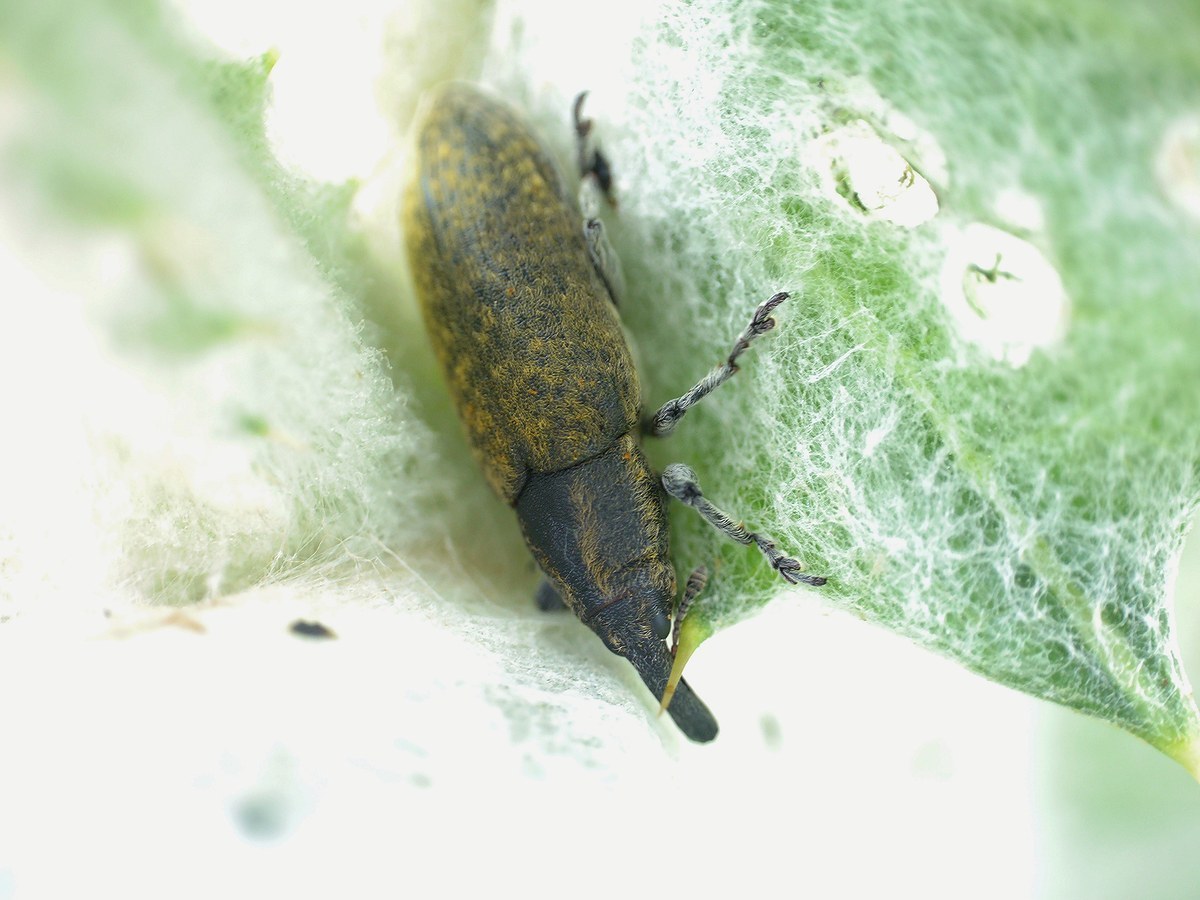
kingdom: Animalia
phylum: Arthropoda
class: Insecta
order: Coleoptera
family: Curculionidae
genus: Lixus
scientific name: Lixus cardui
